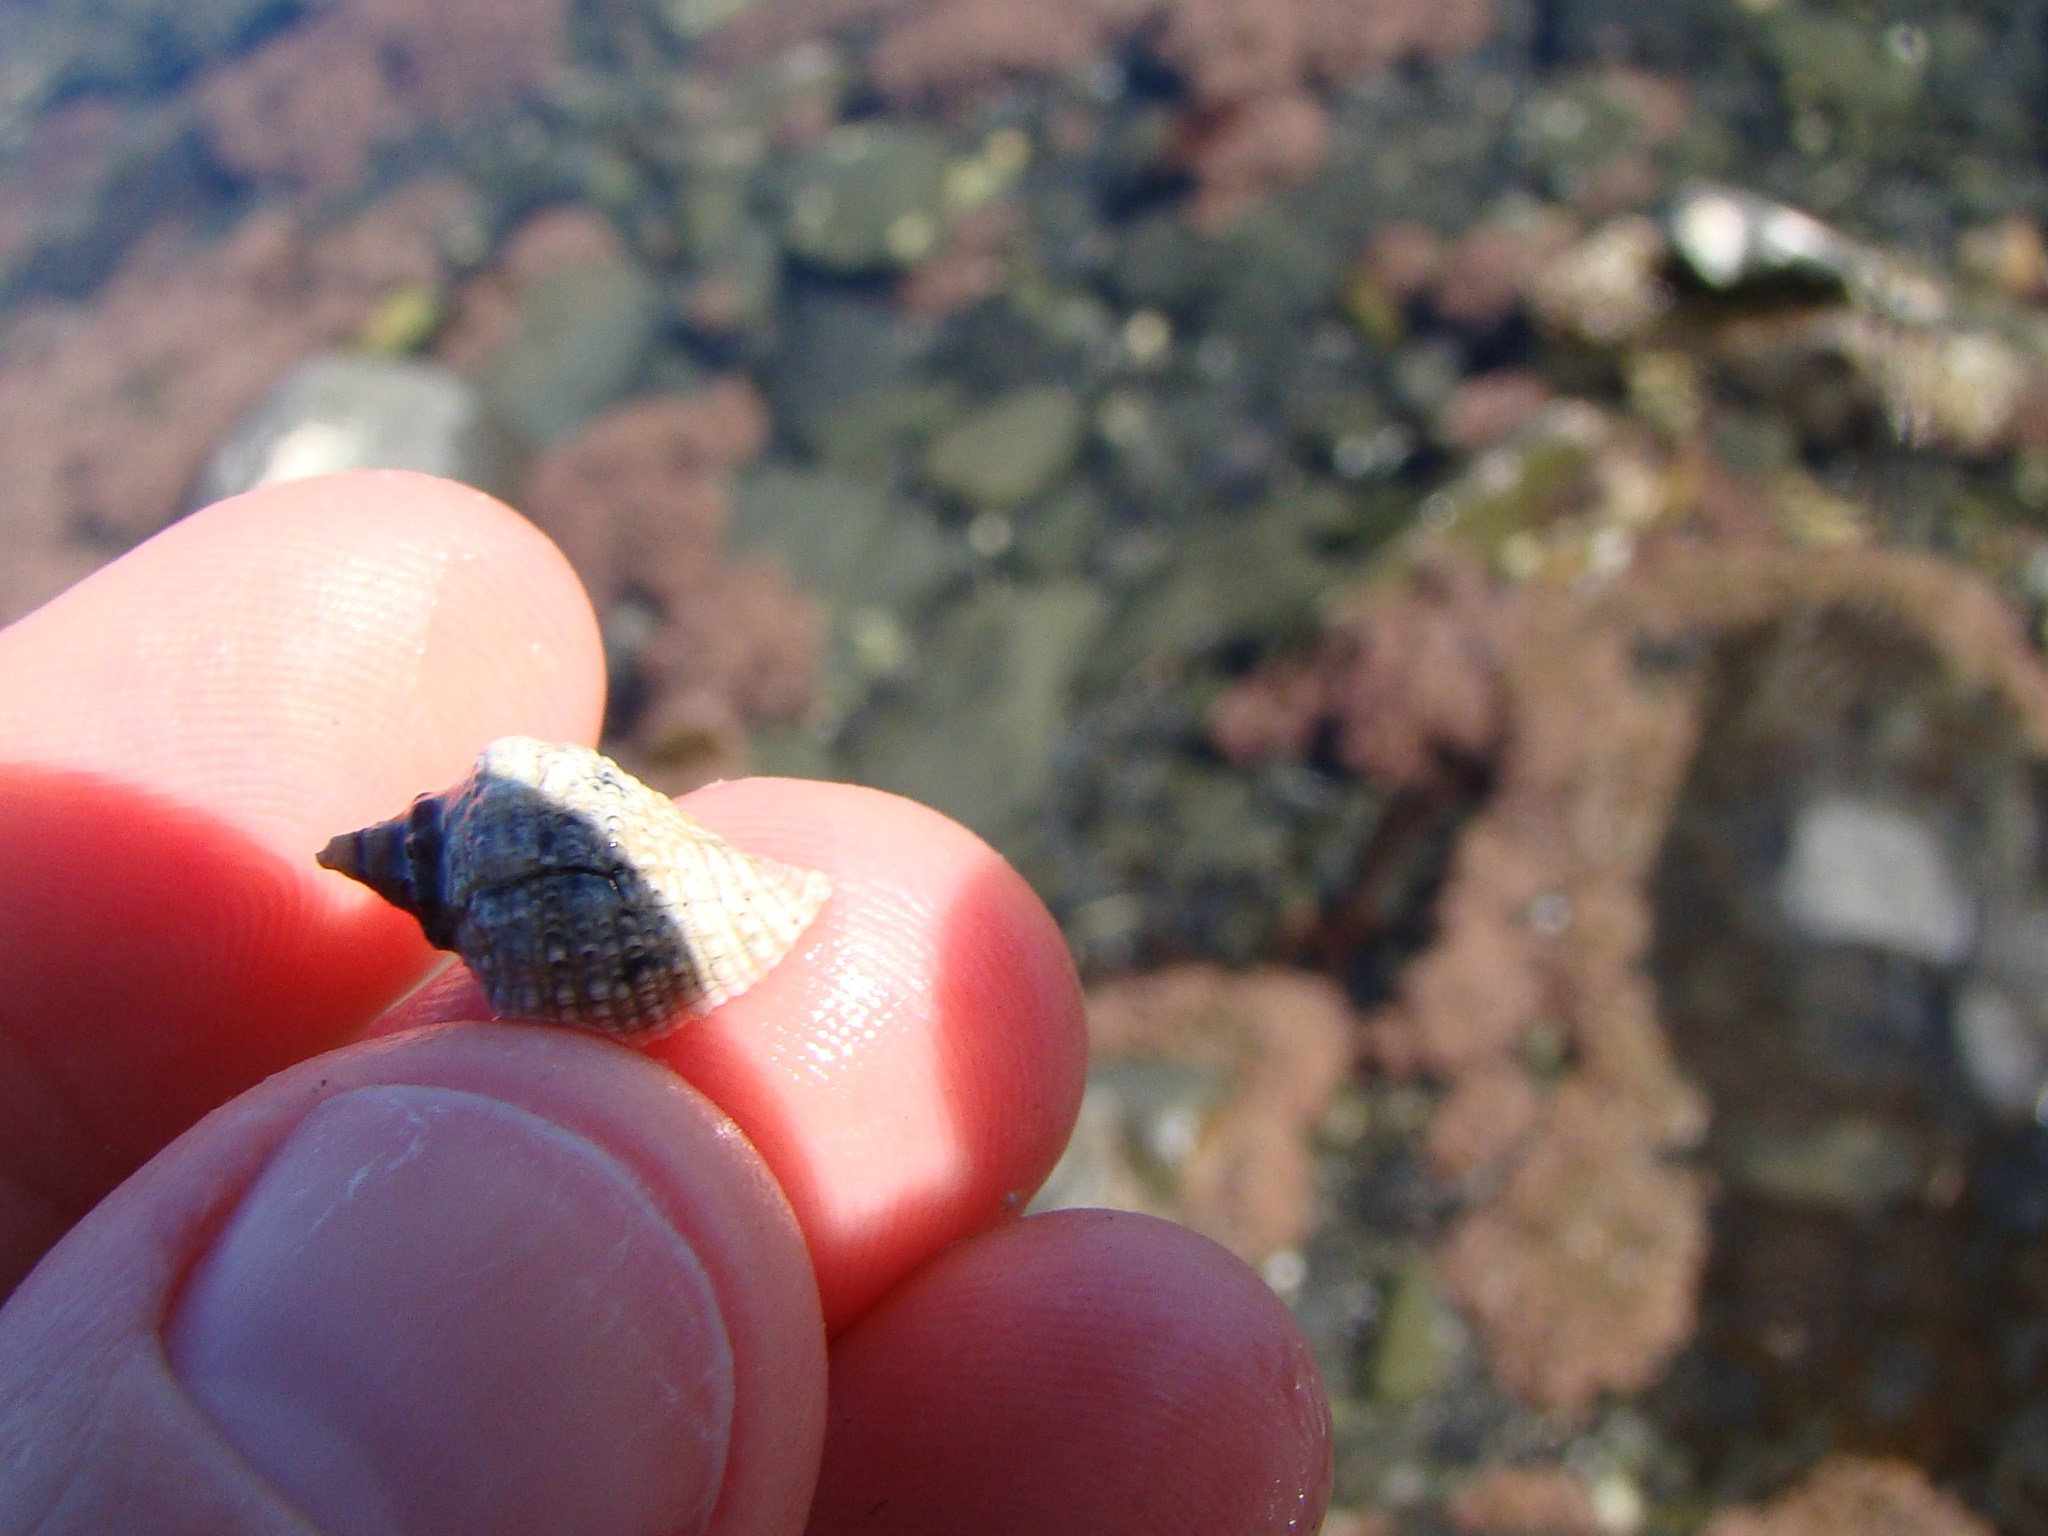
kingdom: Animalia
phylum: Mollusca
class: Gastropoda
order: Neogastropoda
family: Muricidae
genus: Haustrum
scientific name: Haustrum haustorium
